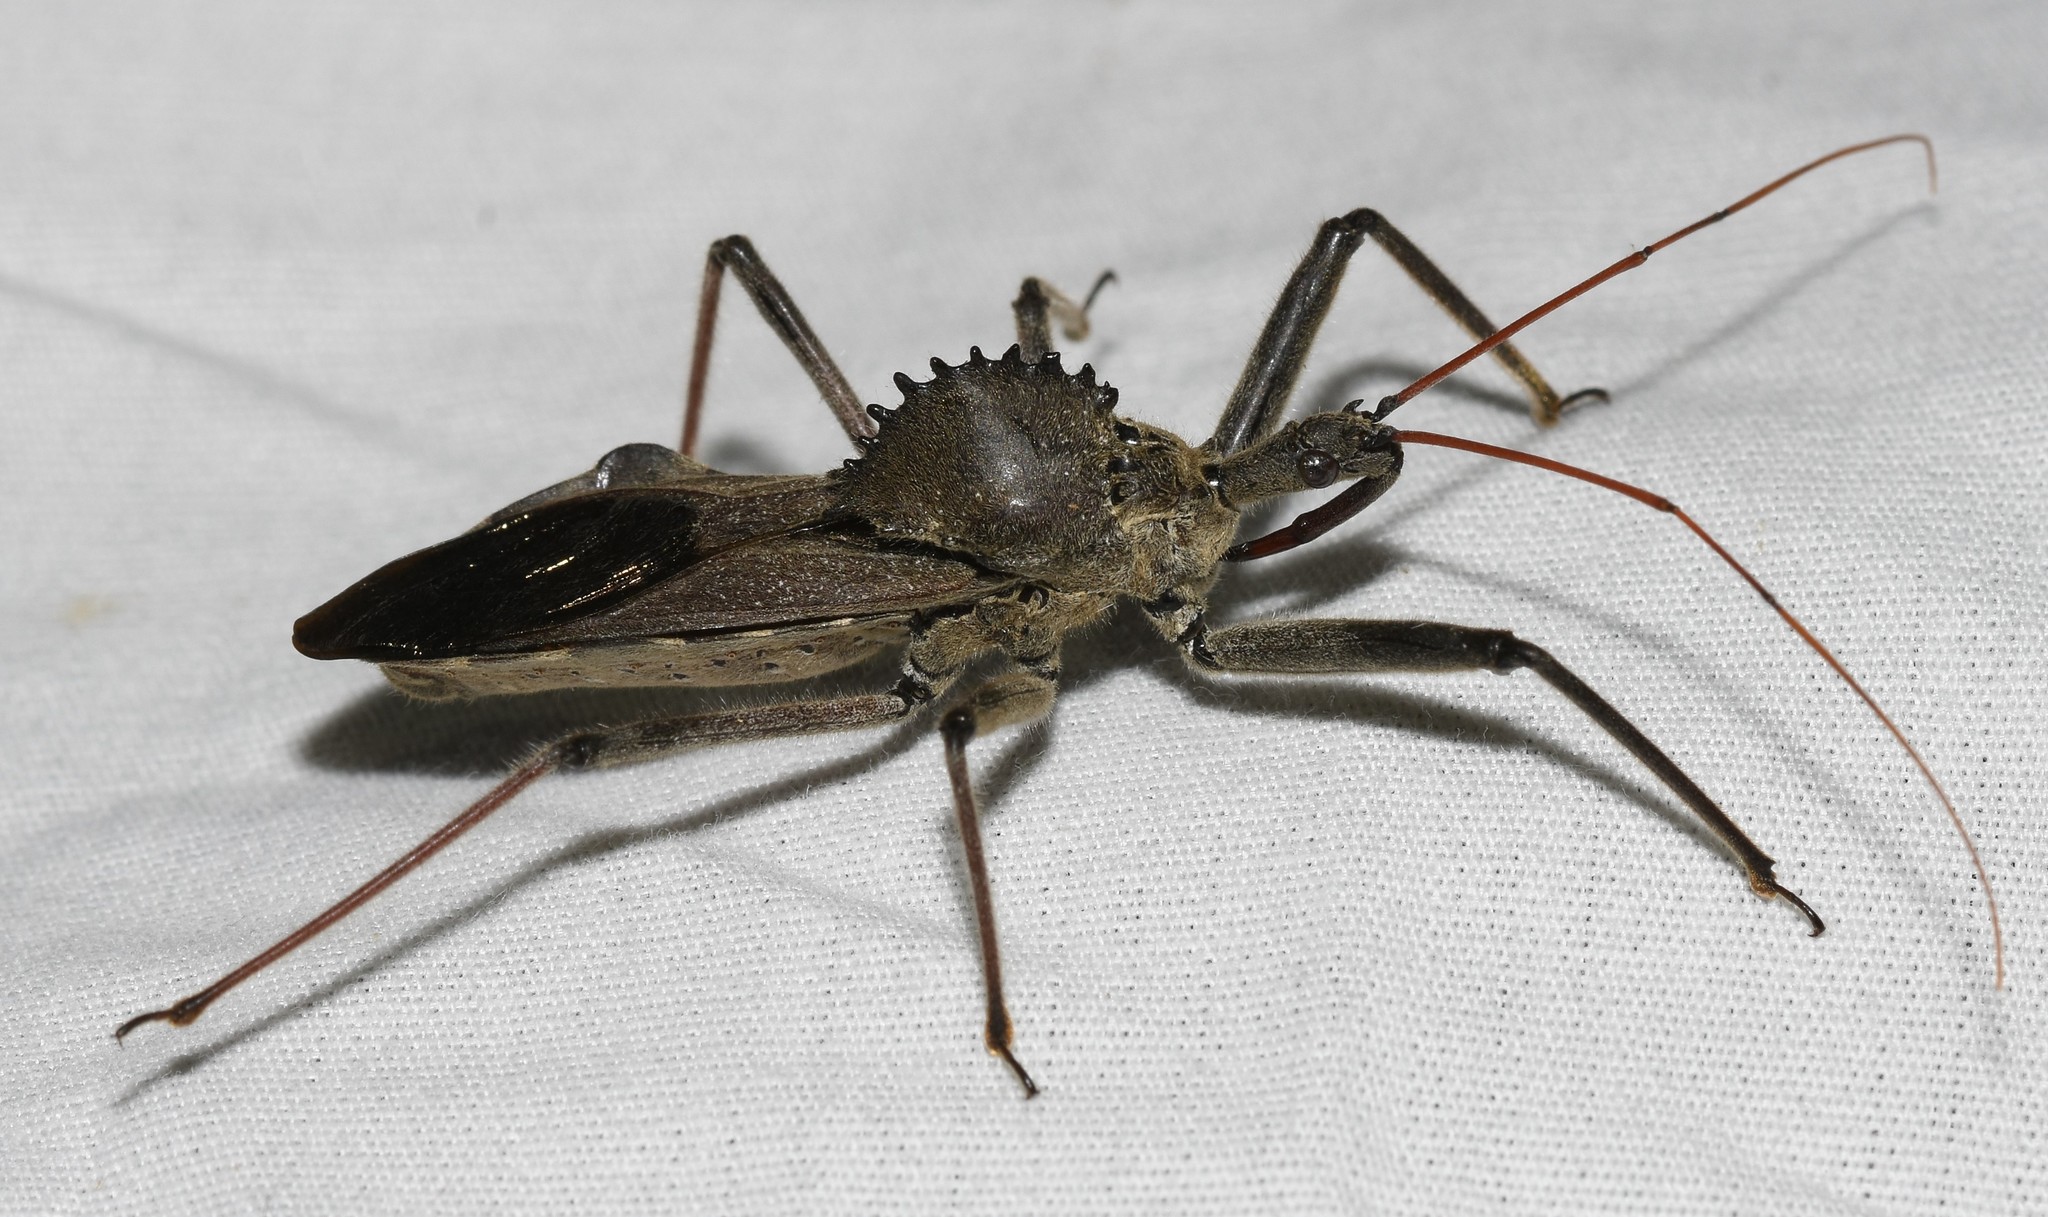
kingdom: Animalia
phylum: Arthropoda
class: Insecta
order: Hemiptera
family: Reduviidae
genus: Arilus
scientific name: Arilus cristatus
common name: North american wheel bug
